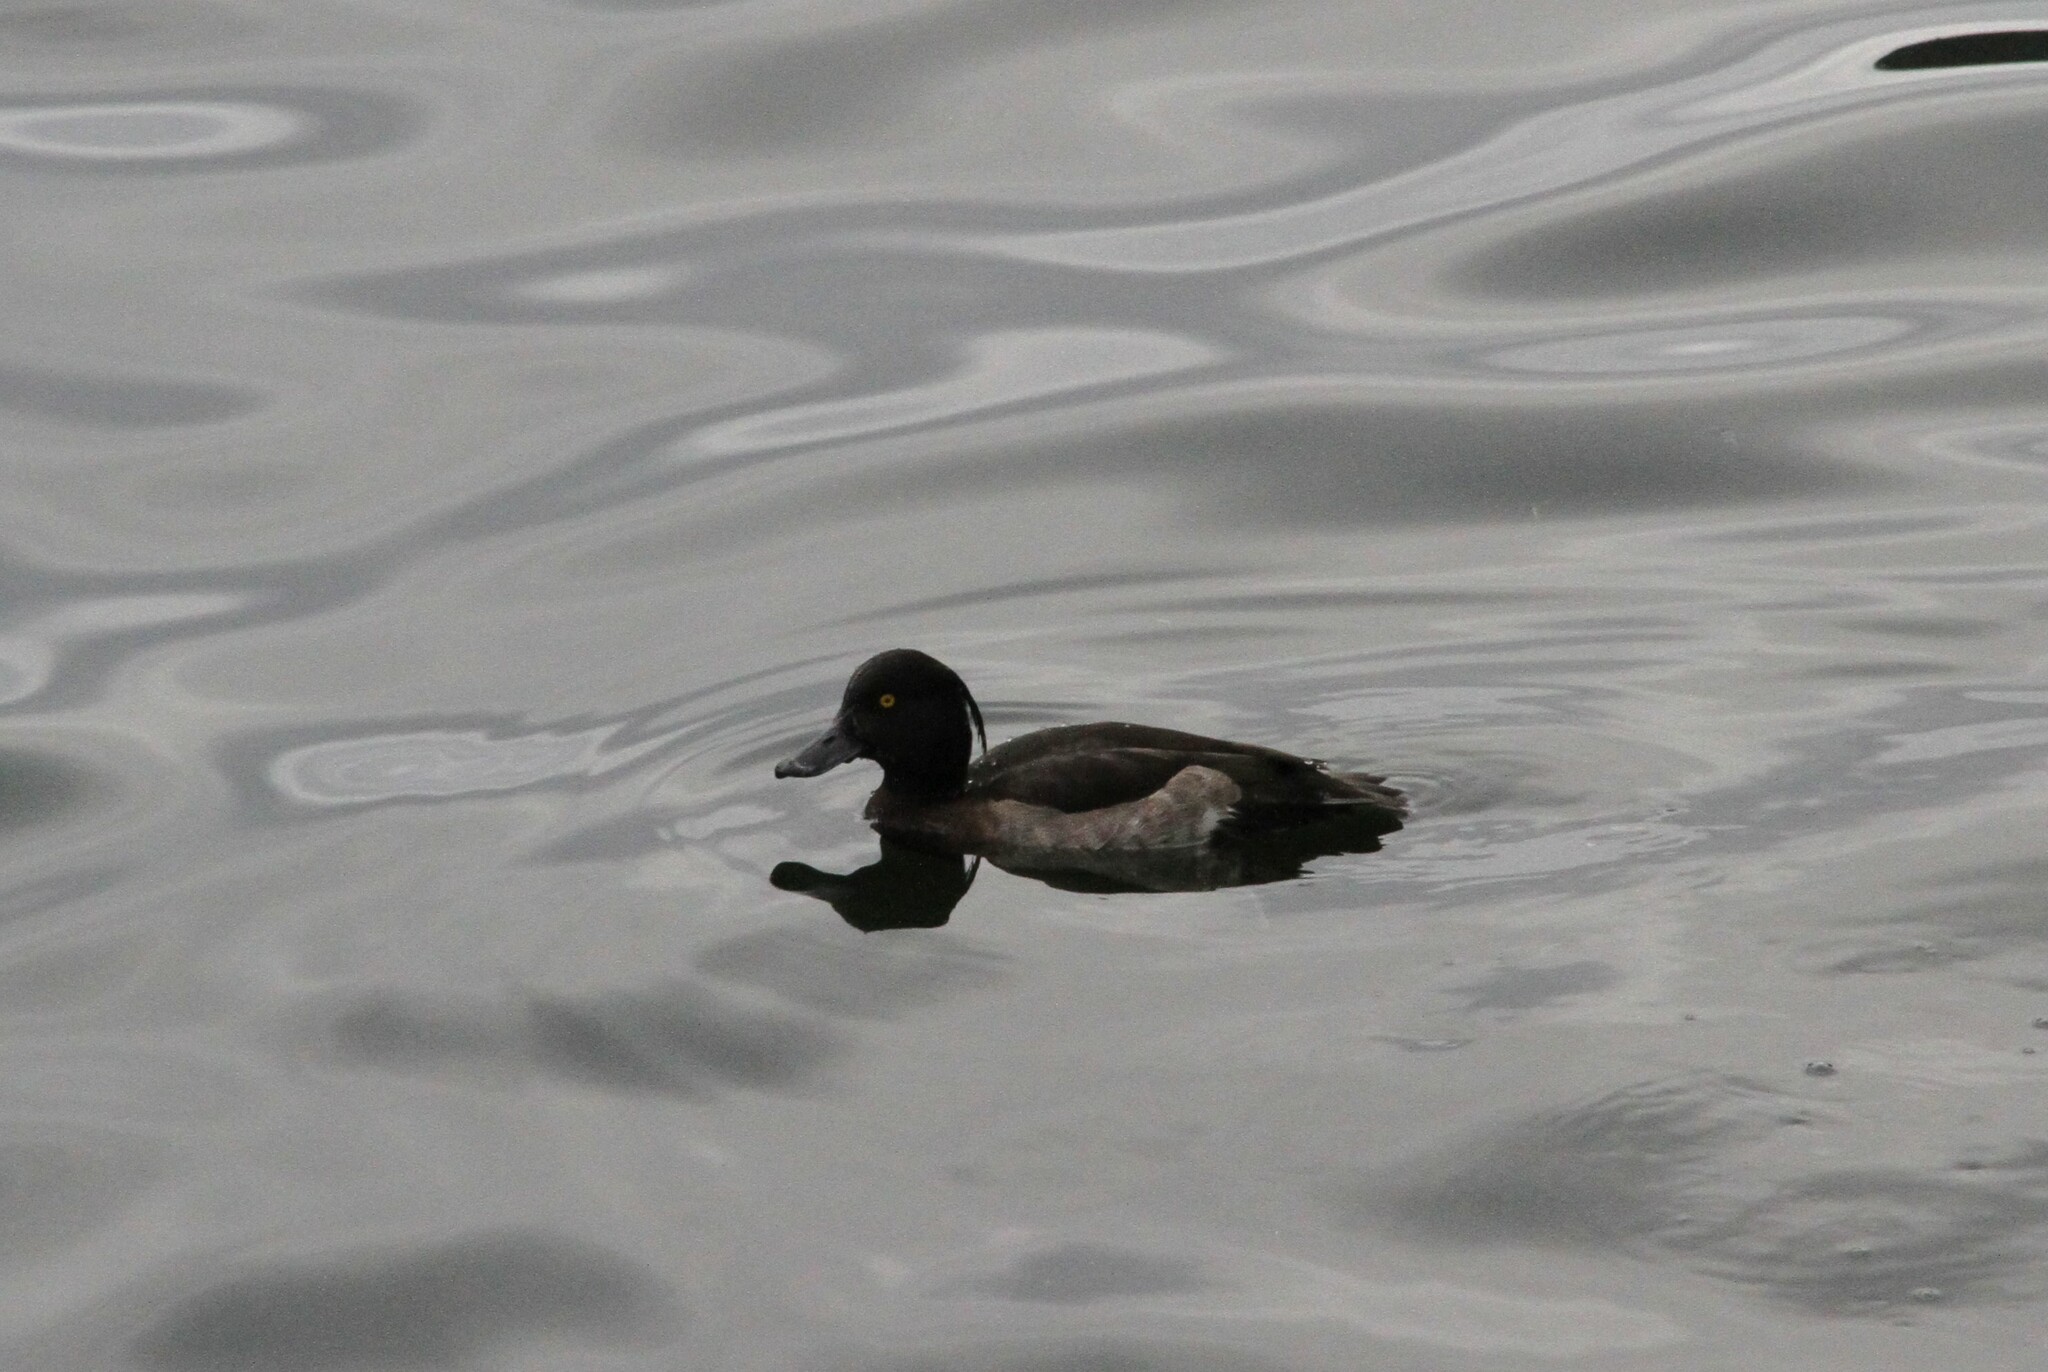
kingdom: Animalia
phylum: Chordata
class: Aves
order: Anseriformes
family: Anatidae
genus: Aythya
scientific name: Aythya fuligula
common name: Tufted duck
